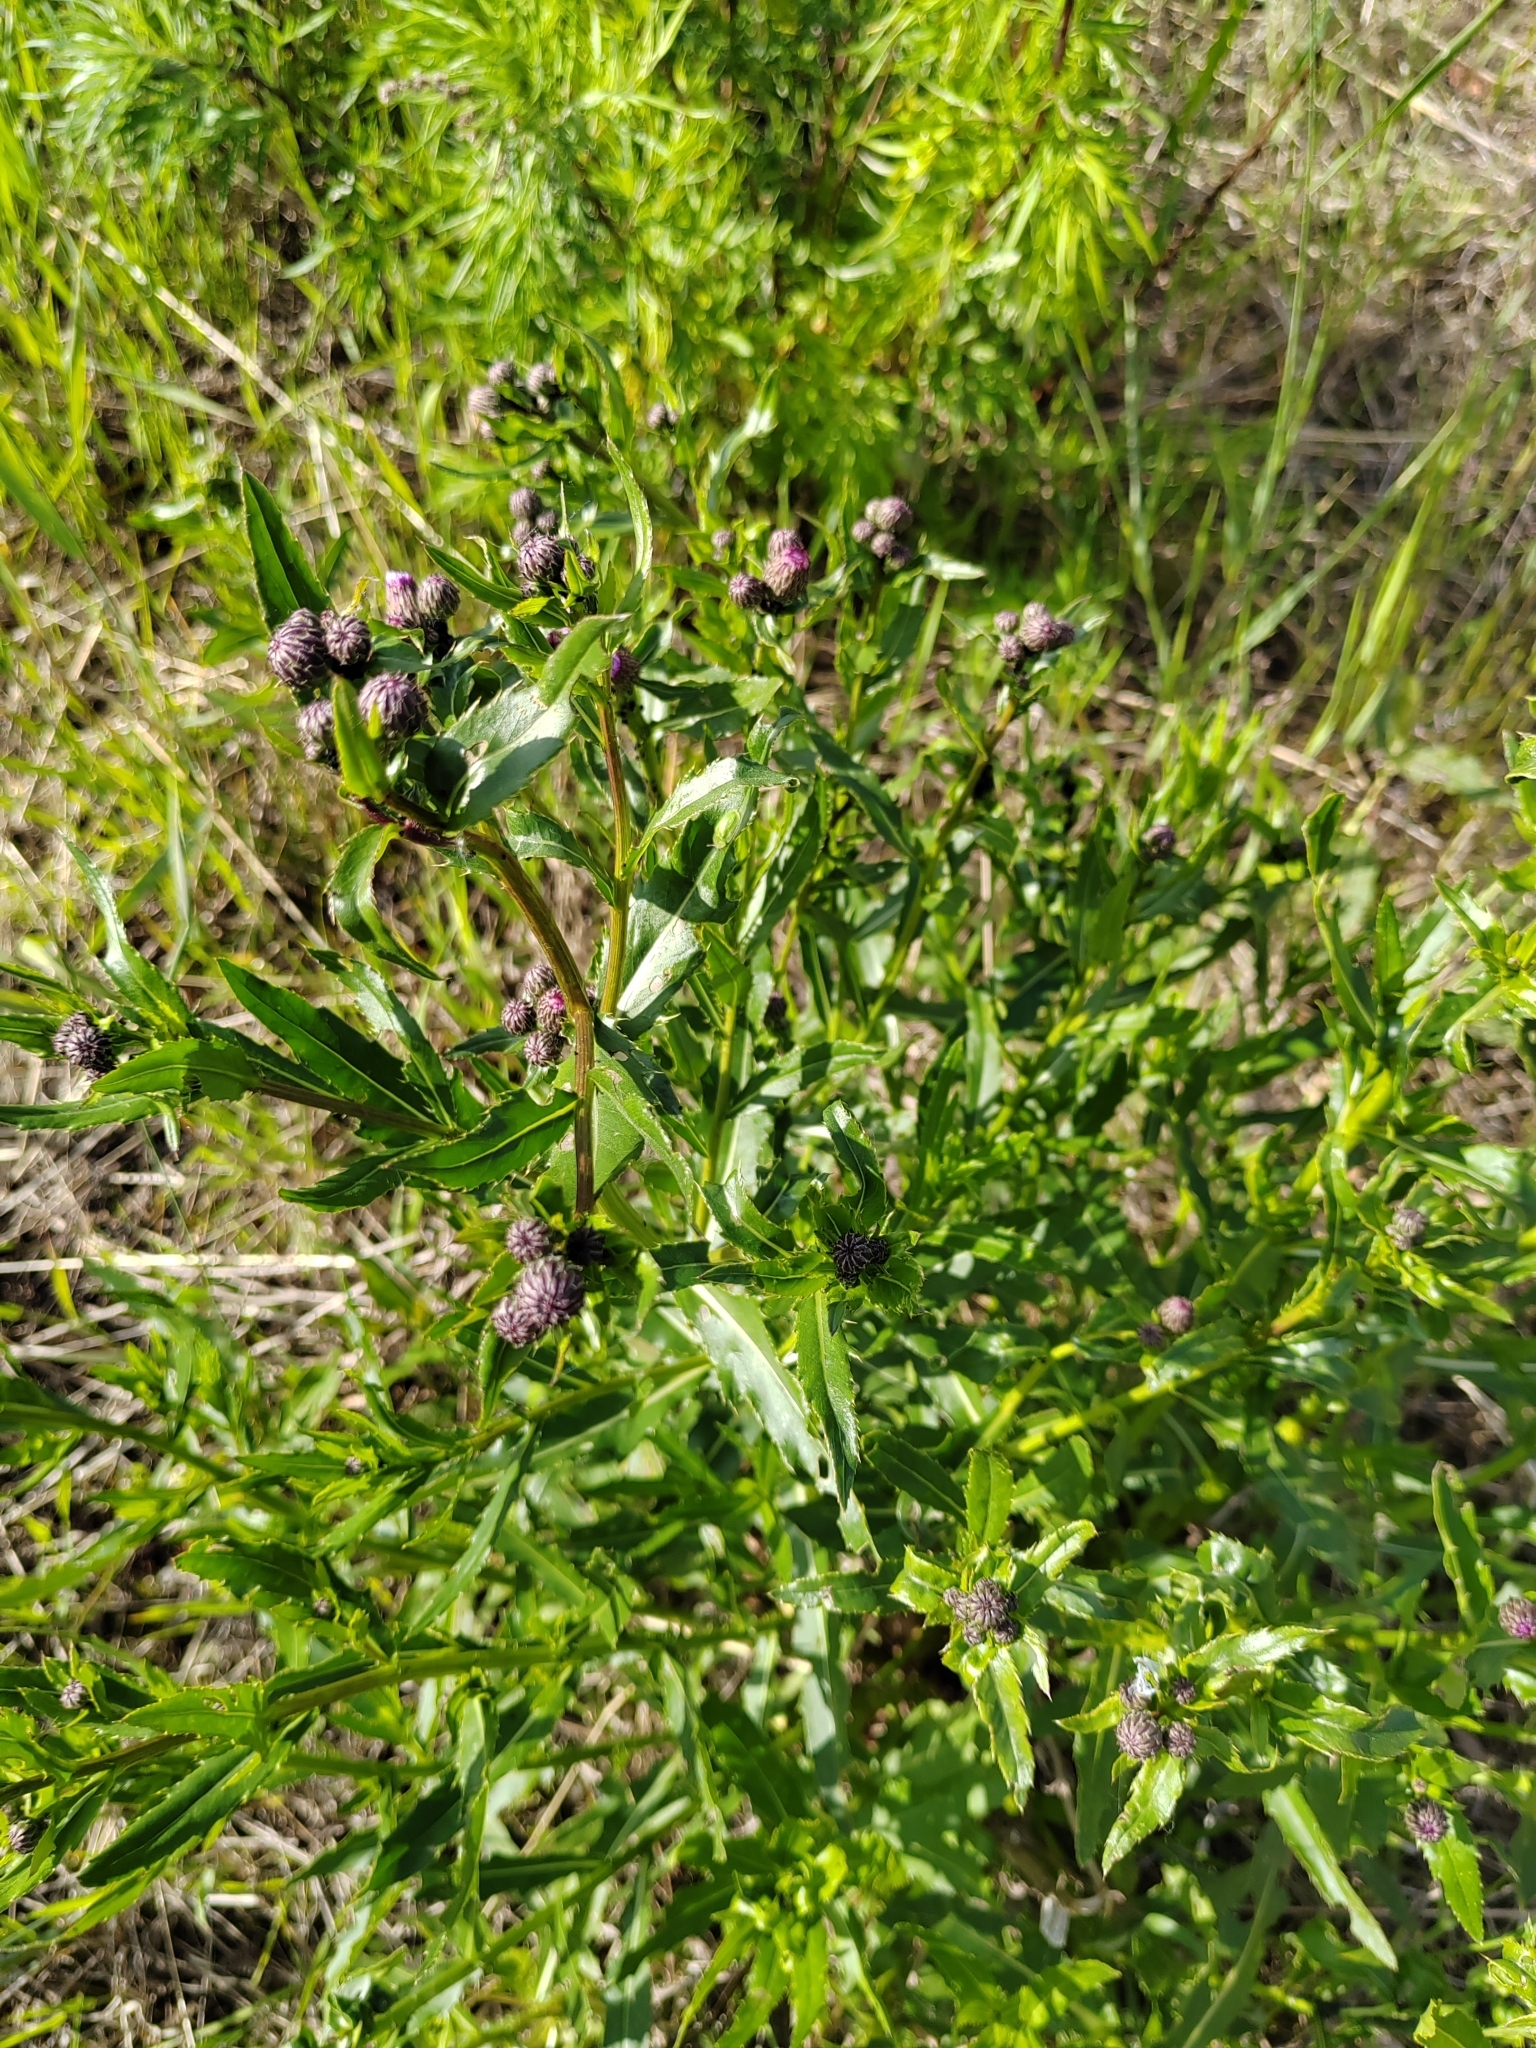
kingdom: Plantae
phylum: Tracheophyta
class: Magnoliopsida
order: Asterales
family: Asteraceae
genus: Cirsium
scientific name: Cirsium arvense
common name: Creeping thistle
